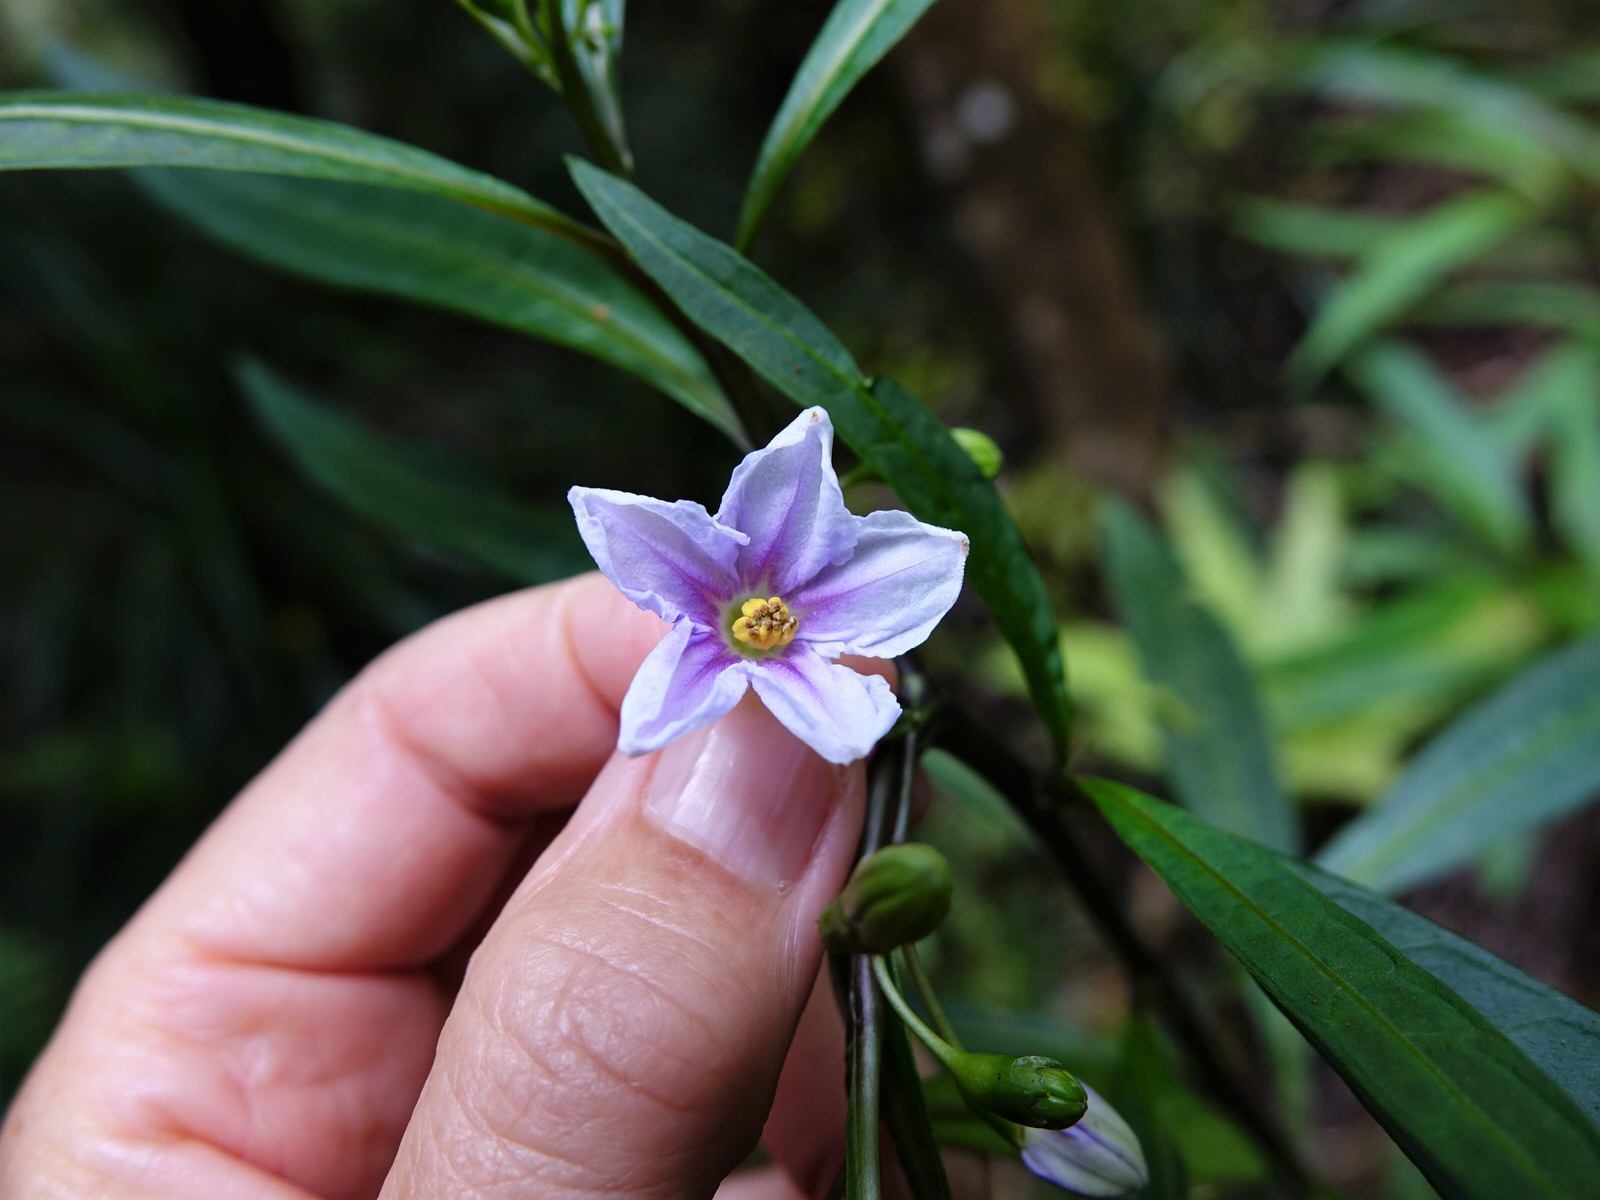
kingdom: Plantae
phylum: Tracheophyta
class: Magnoliopsida
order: Solanales
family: Solanaceae
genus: Solanum
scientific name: Solanum aviculare
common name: New zealand nightshade
